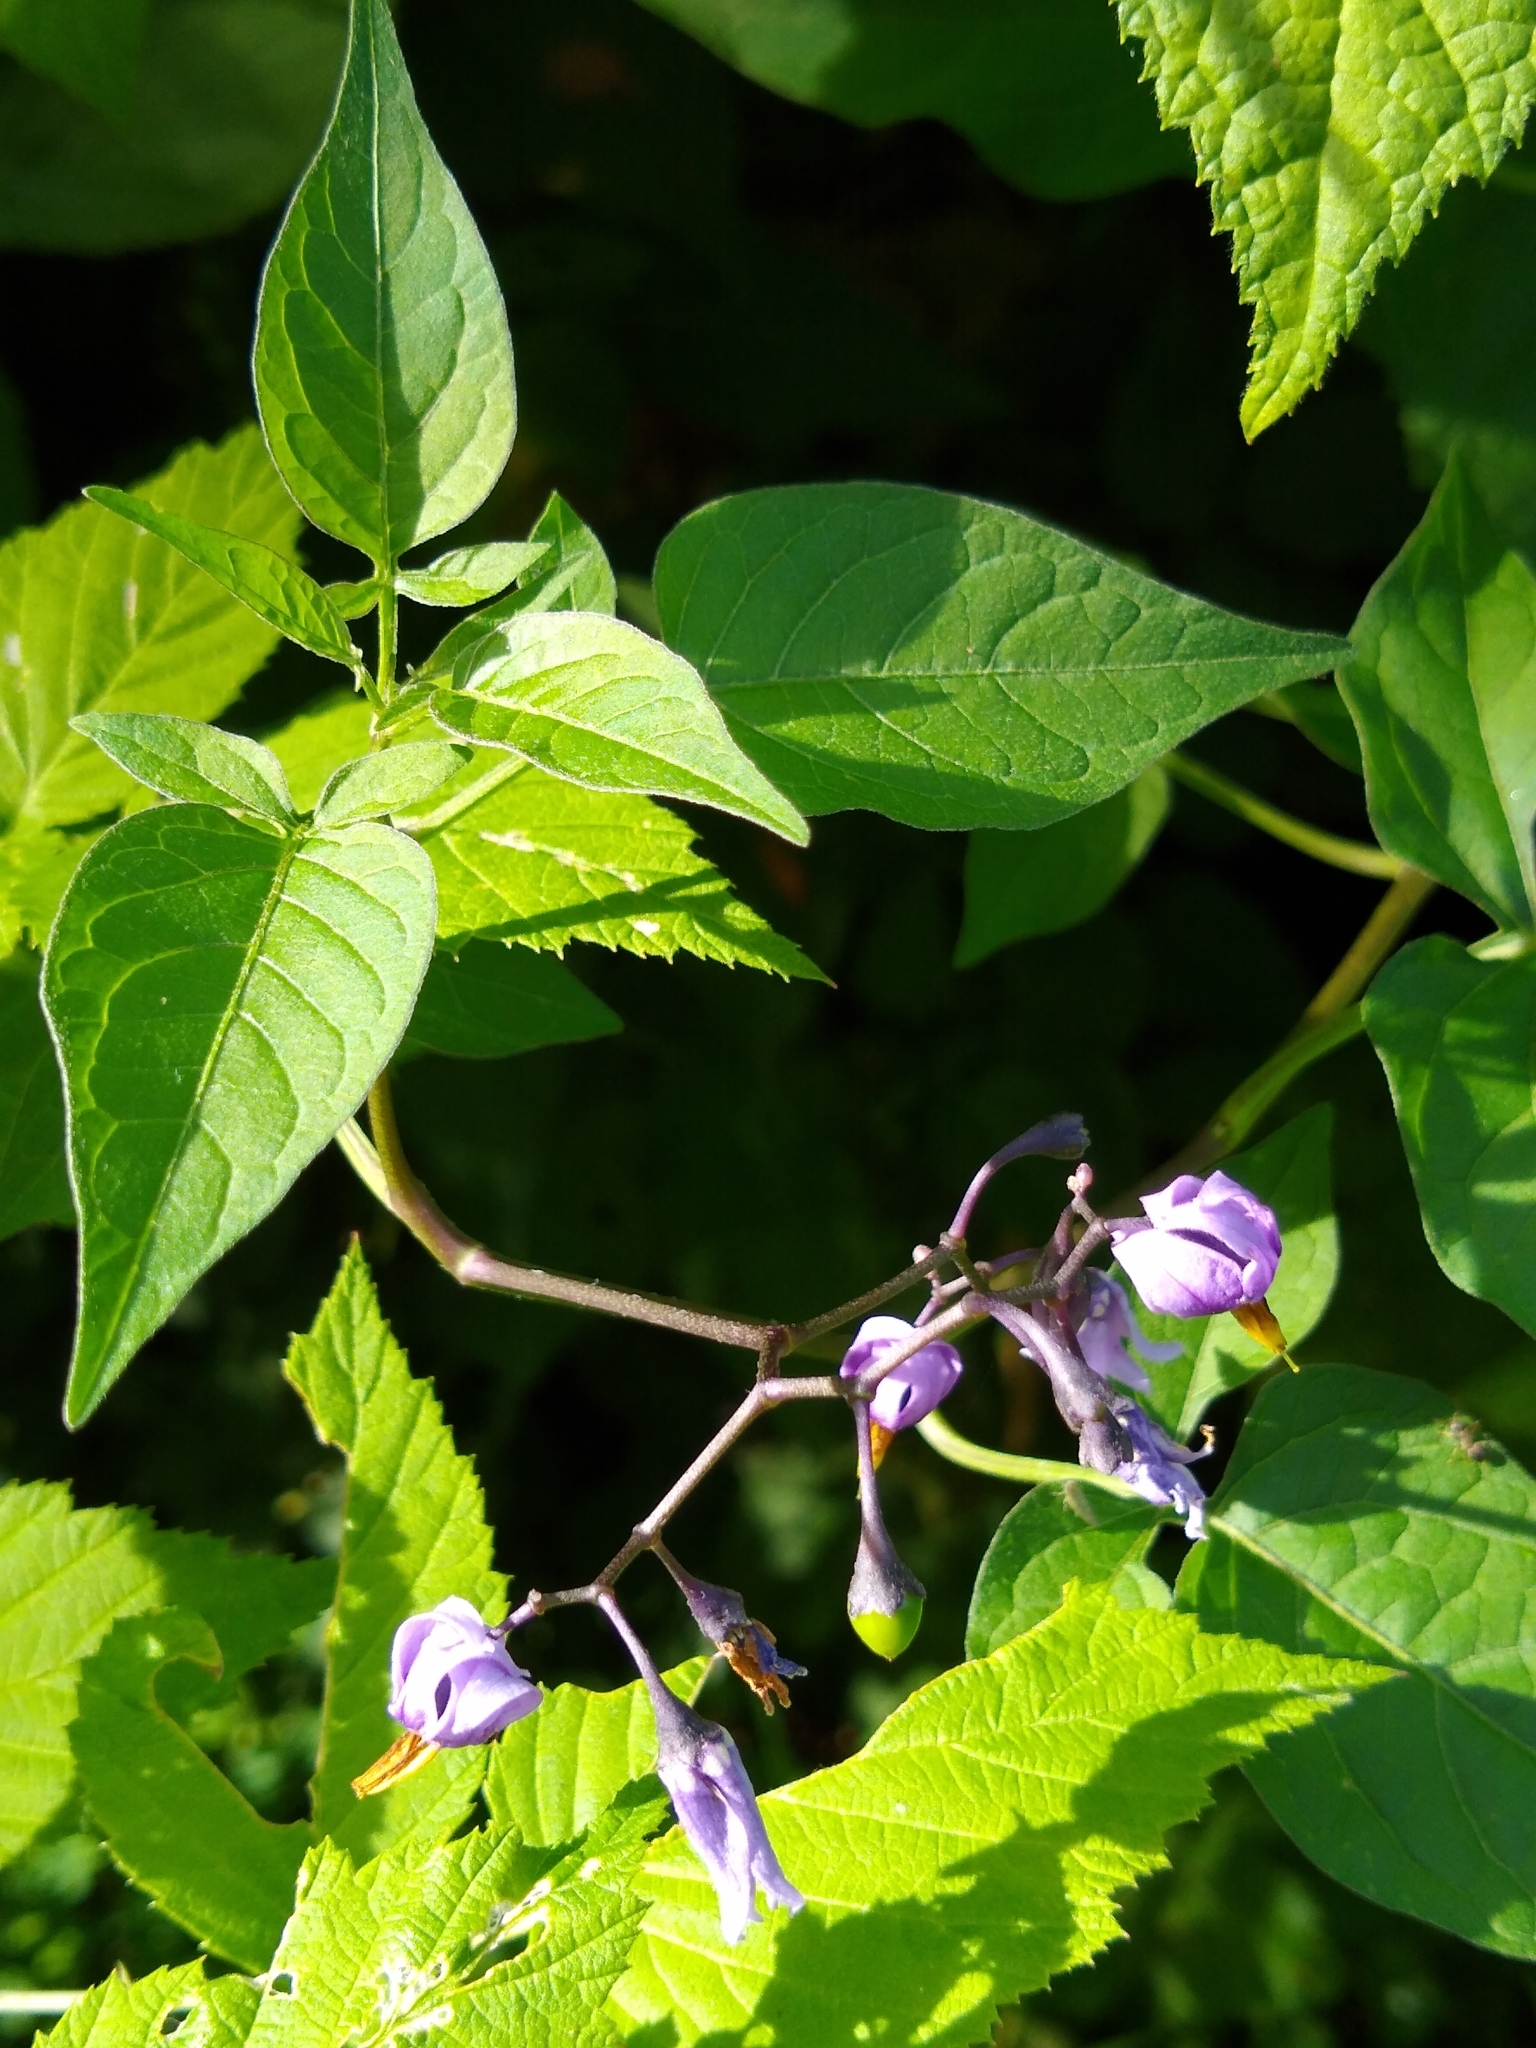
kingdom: Plantae
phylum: Tracheophyta
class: Magnoliopsida
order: Solanales
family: Solanaceae
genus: Solanum
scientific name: Solanum dulcamara
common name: Climbing nightshade
